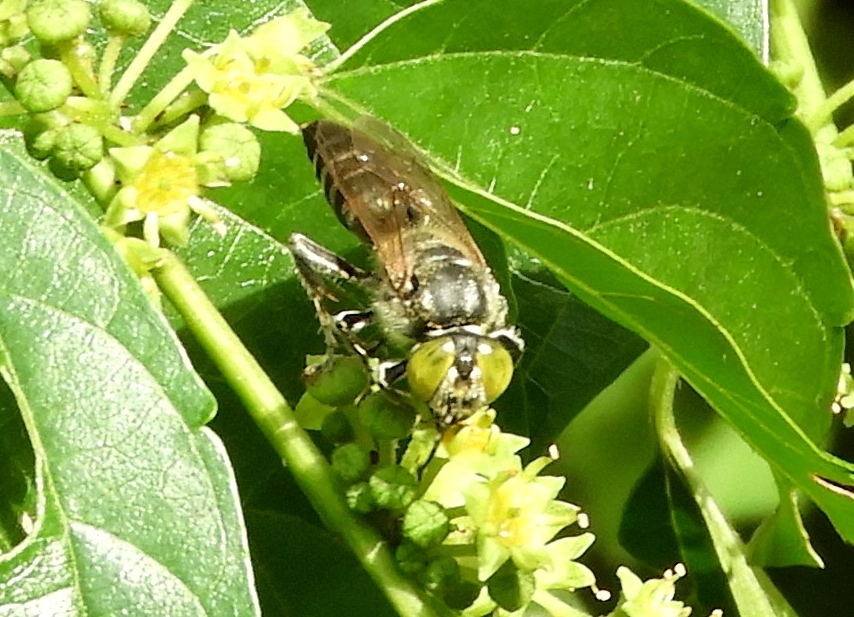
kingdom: Animalia
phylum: Arthropoda
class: Insecta
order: Hymenoptera
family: Crabronidae
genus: Tachytes
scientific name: Tachytes
